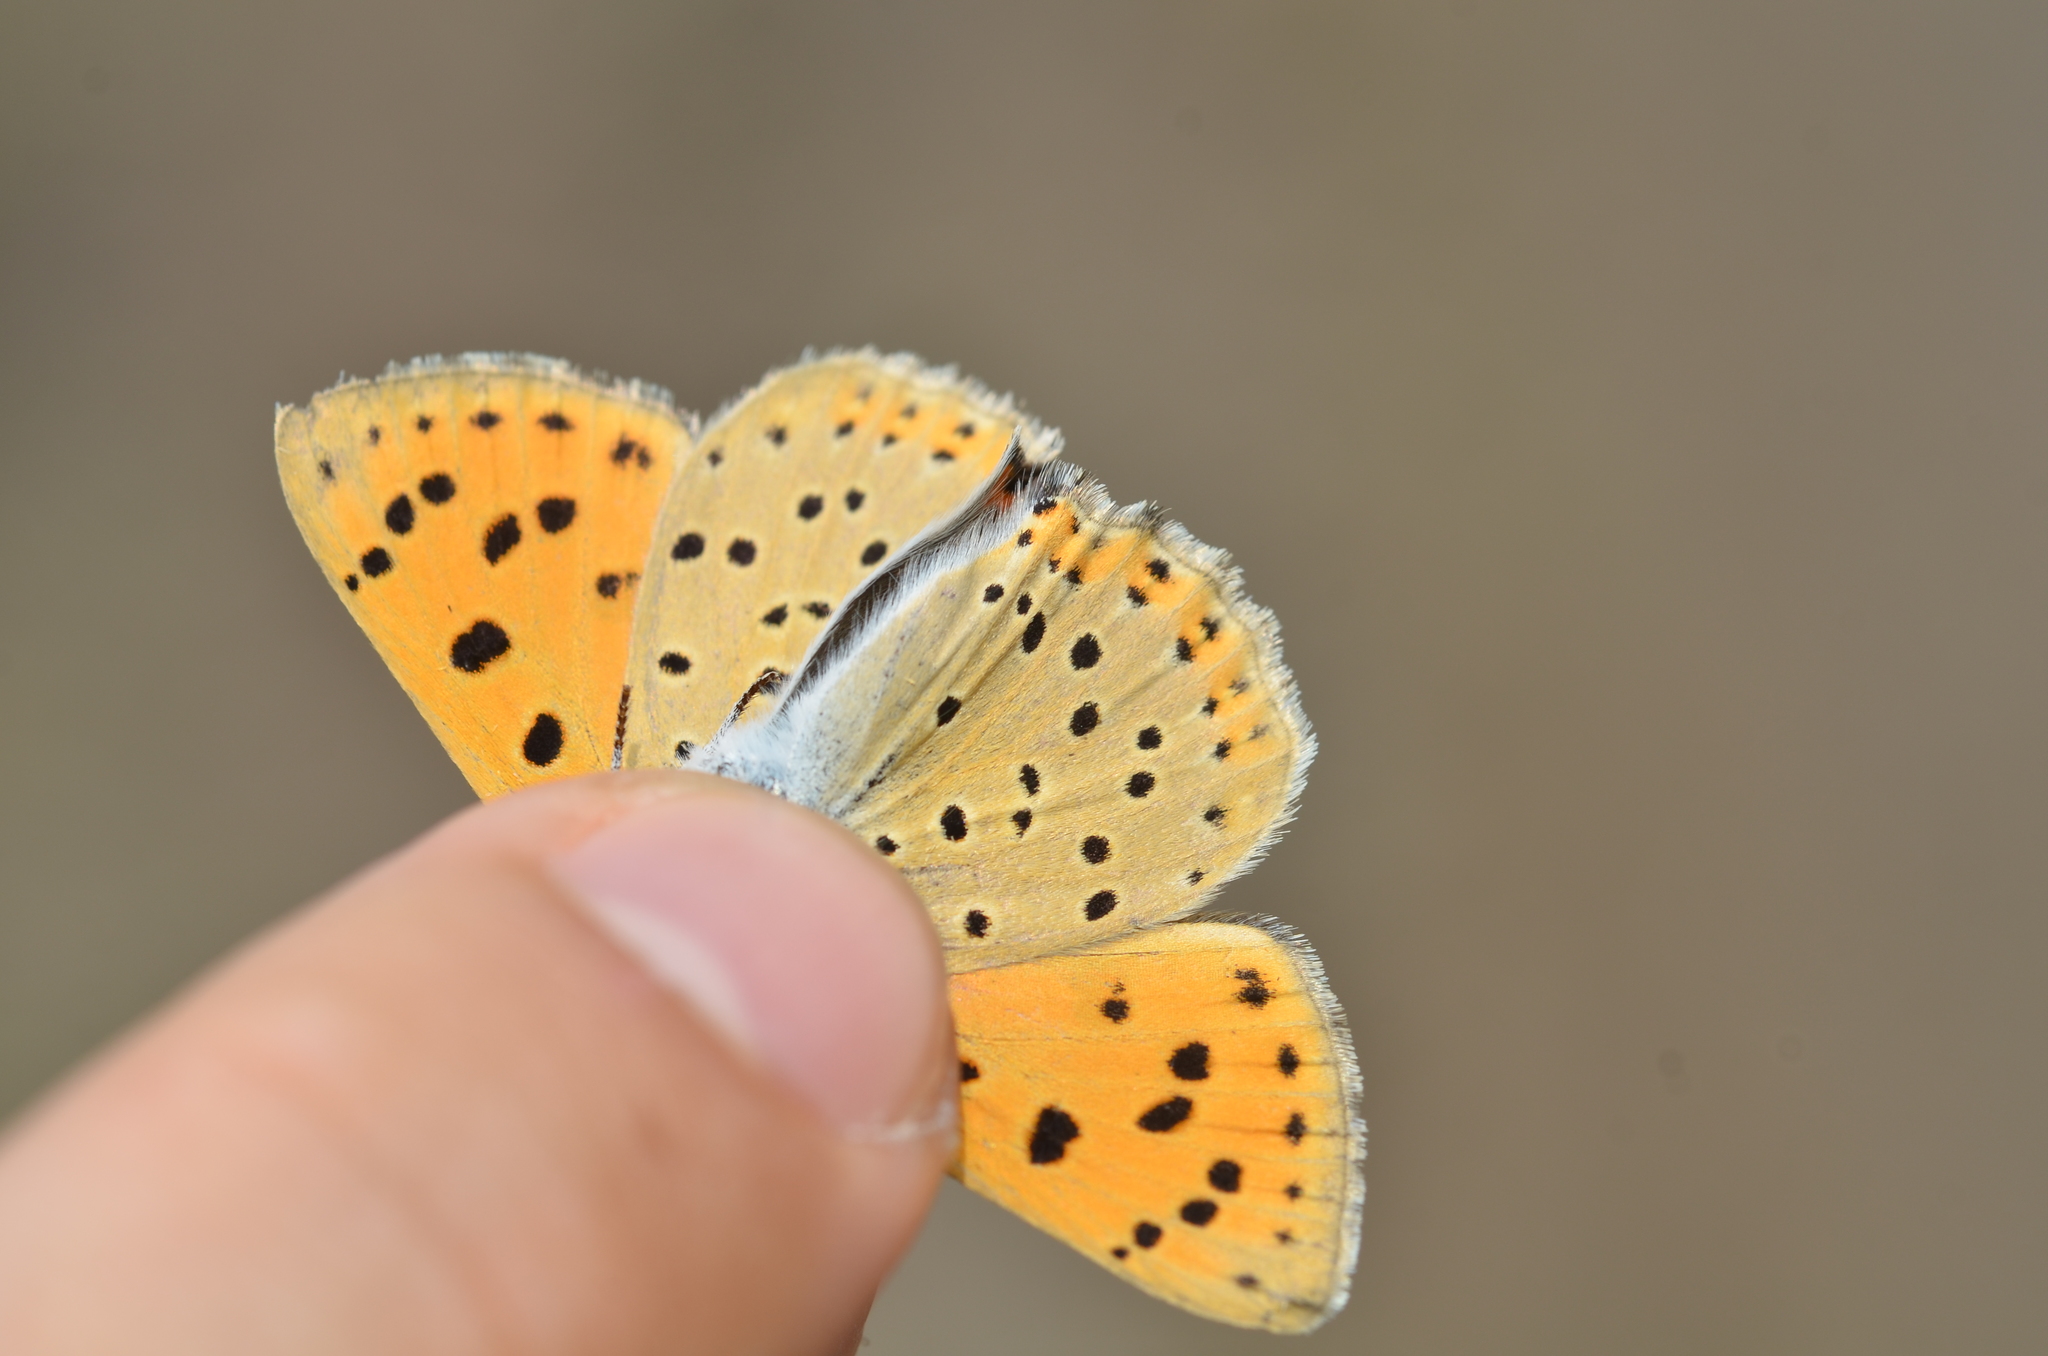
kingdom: Animalia
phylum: Arthropoda
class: Insecta
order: Lepidoptera
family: Lycaenidae
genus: Lycaena
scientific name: Lycaena alciphron
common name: Purple-shot copper
